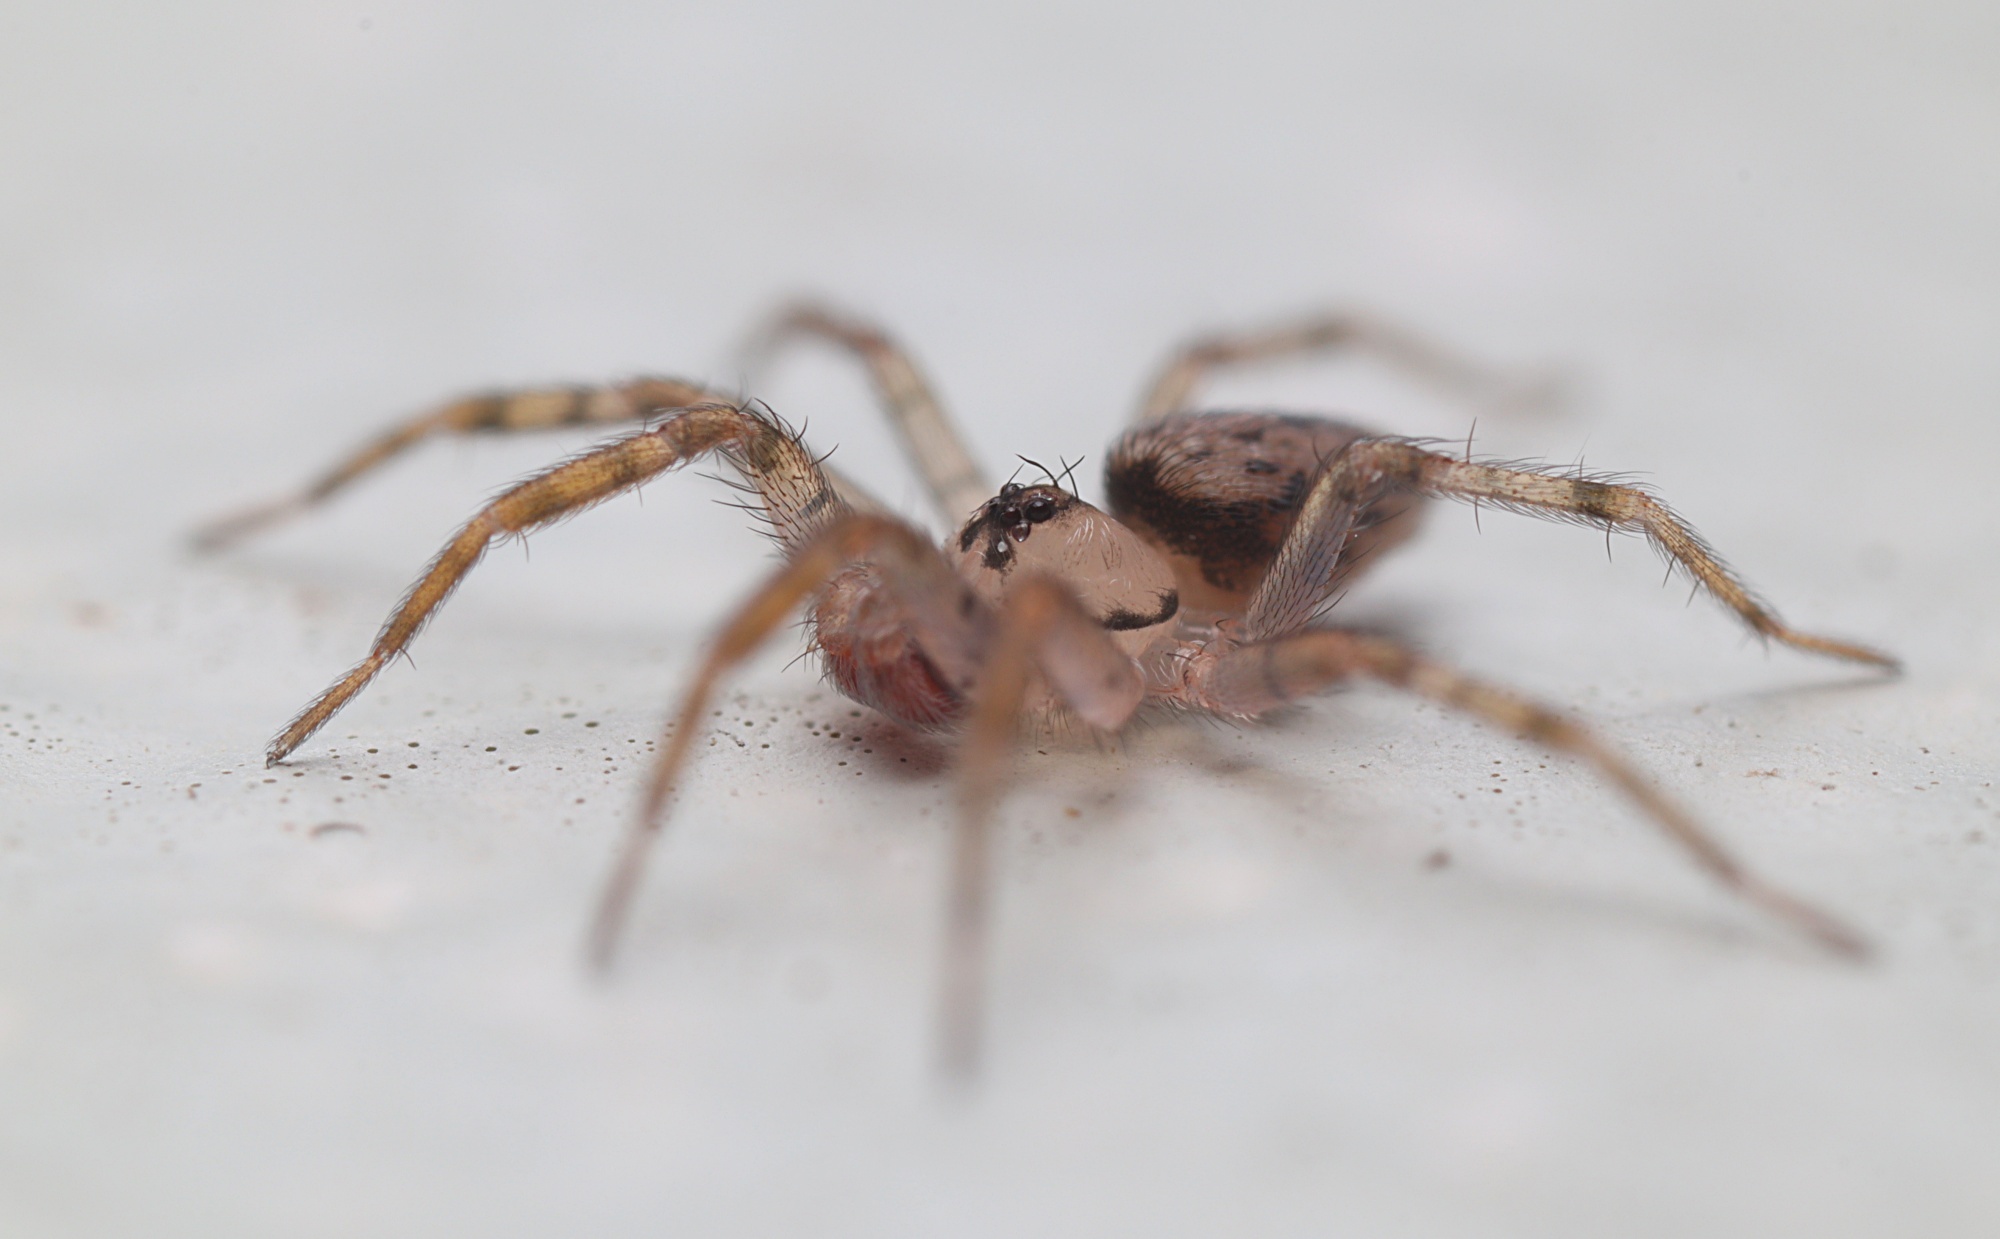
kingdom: Animalia
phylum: Arthropoda
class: Arachnida
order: Araneae
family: Oecobiidae
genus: Oecobius
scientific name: Oecobius navus
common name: Flatmesh weaver
